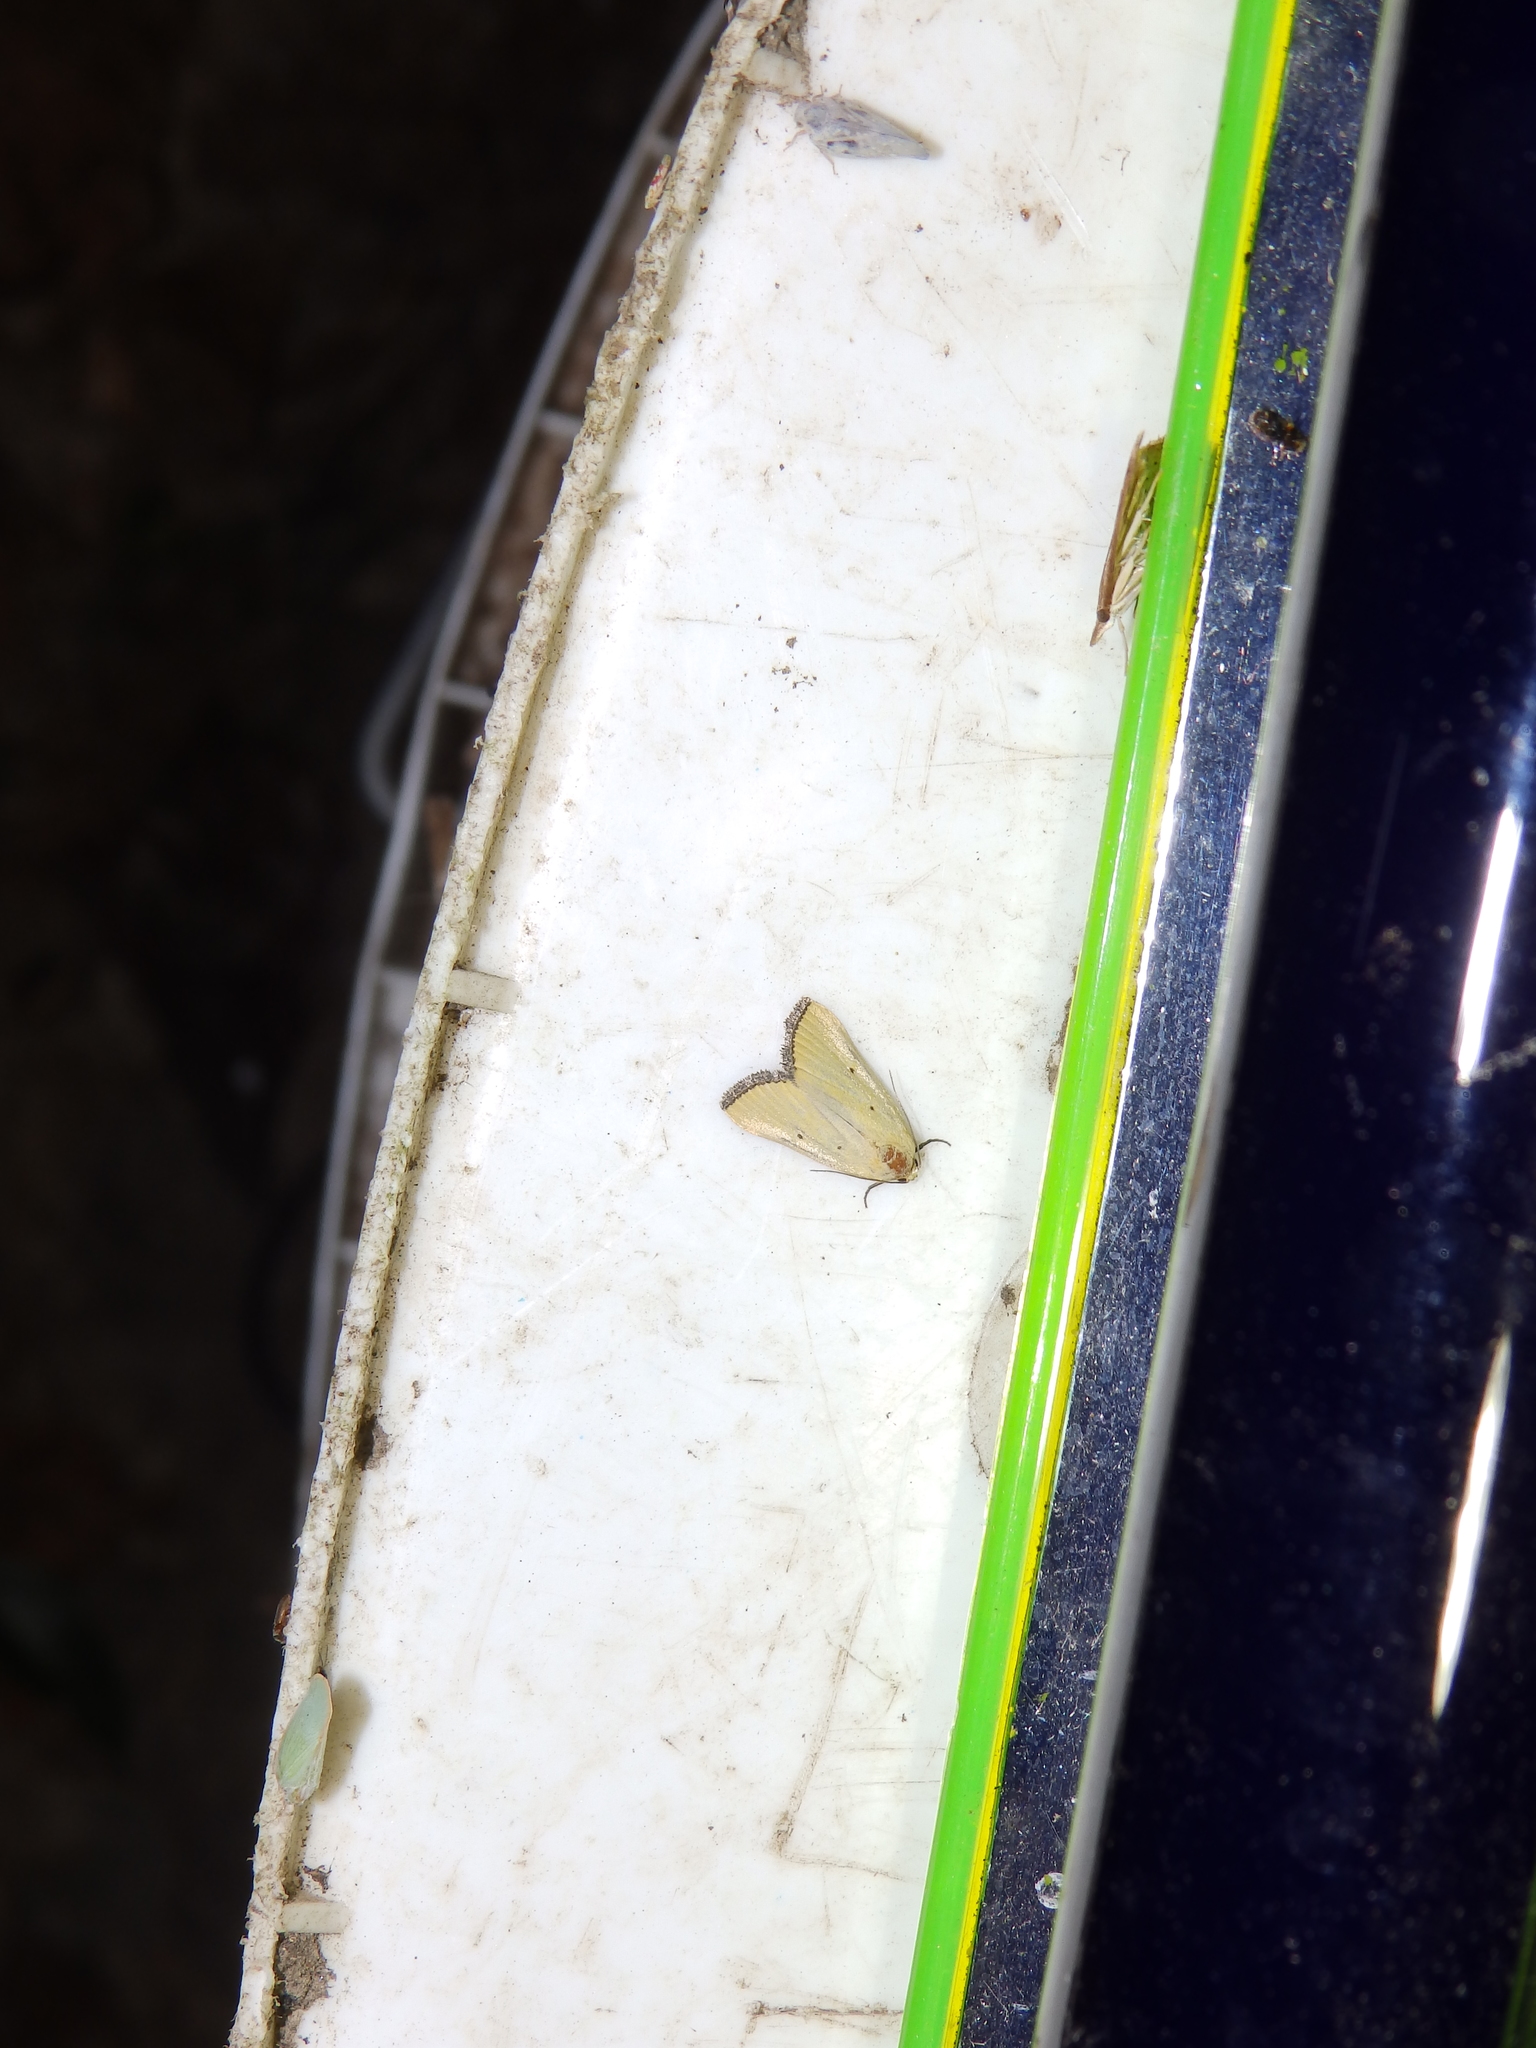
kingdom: Animalia
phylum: Arthropoda
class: Insecta
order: Lepidoptera
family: Noctuidae
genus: Marimatha
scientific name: Marimatha nigrofimbria
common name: Black-bordered lemon moth
